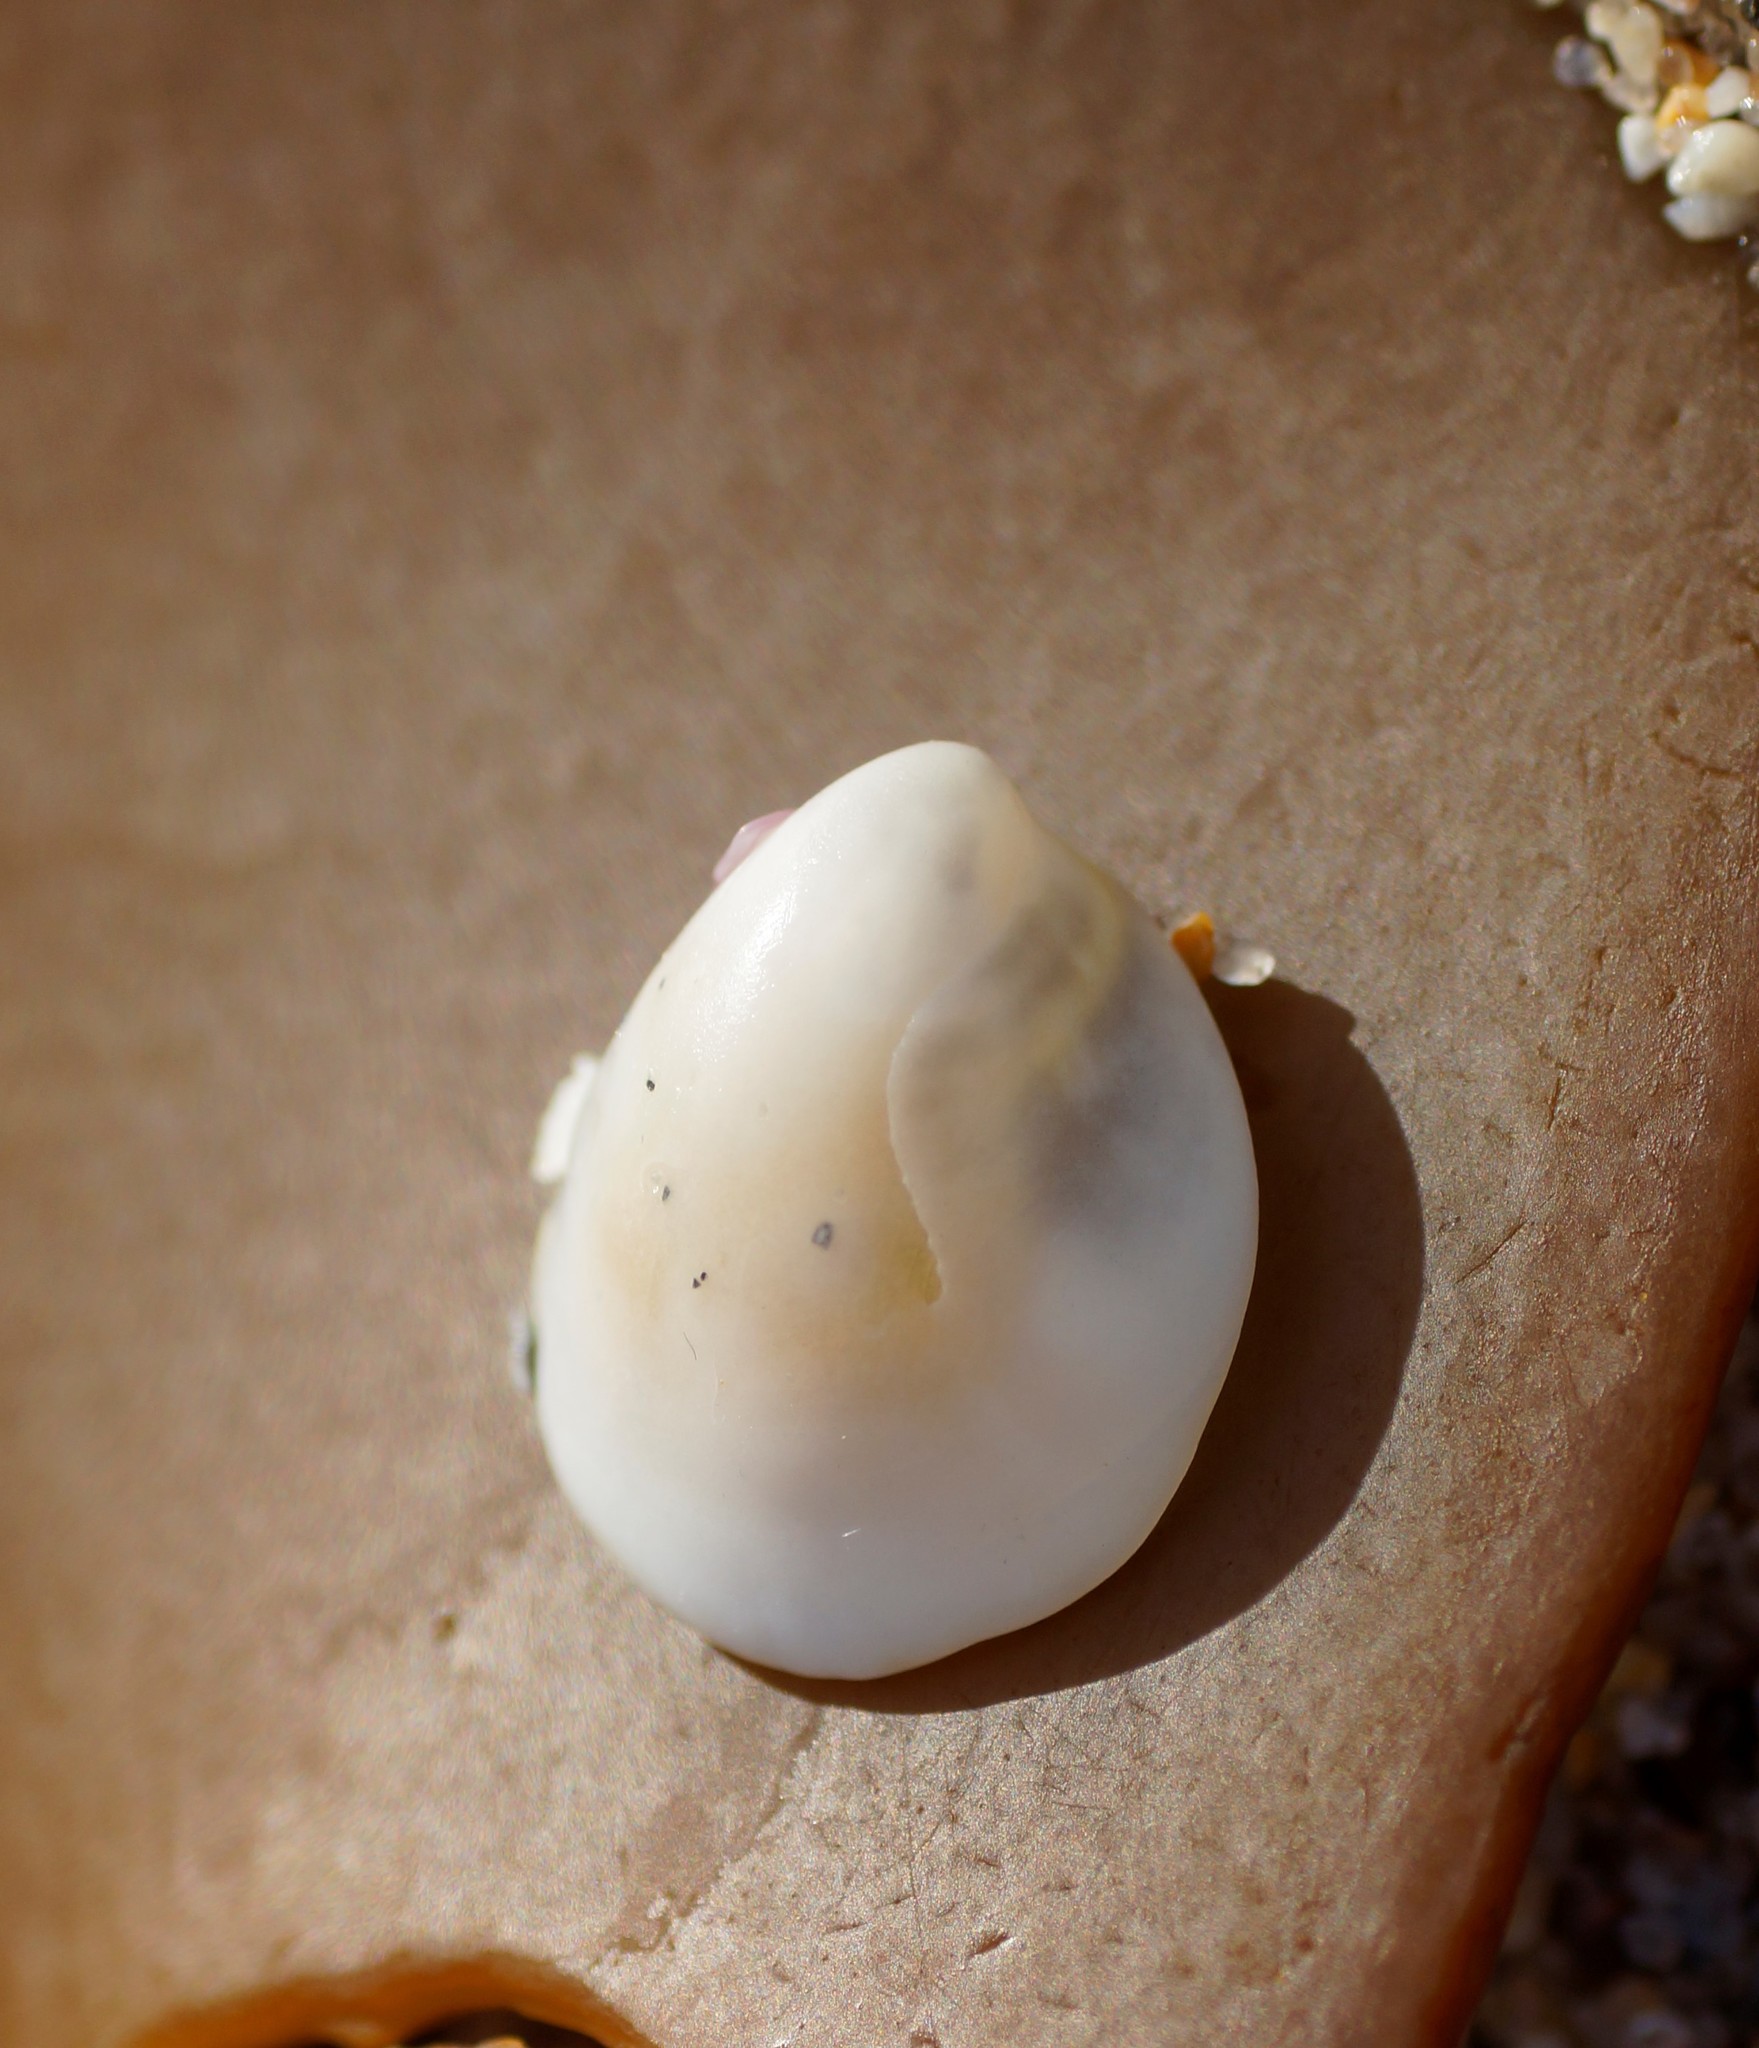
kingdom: Animalia
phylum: Mollusca
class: Gastropoda
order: Littorinimorpha
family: Hipponicidae
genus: Sabia
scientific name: Sabia australis
